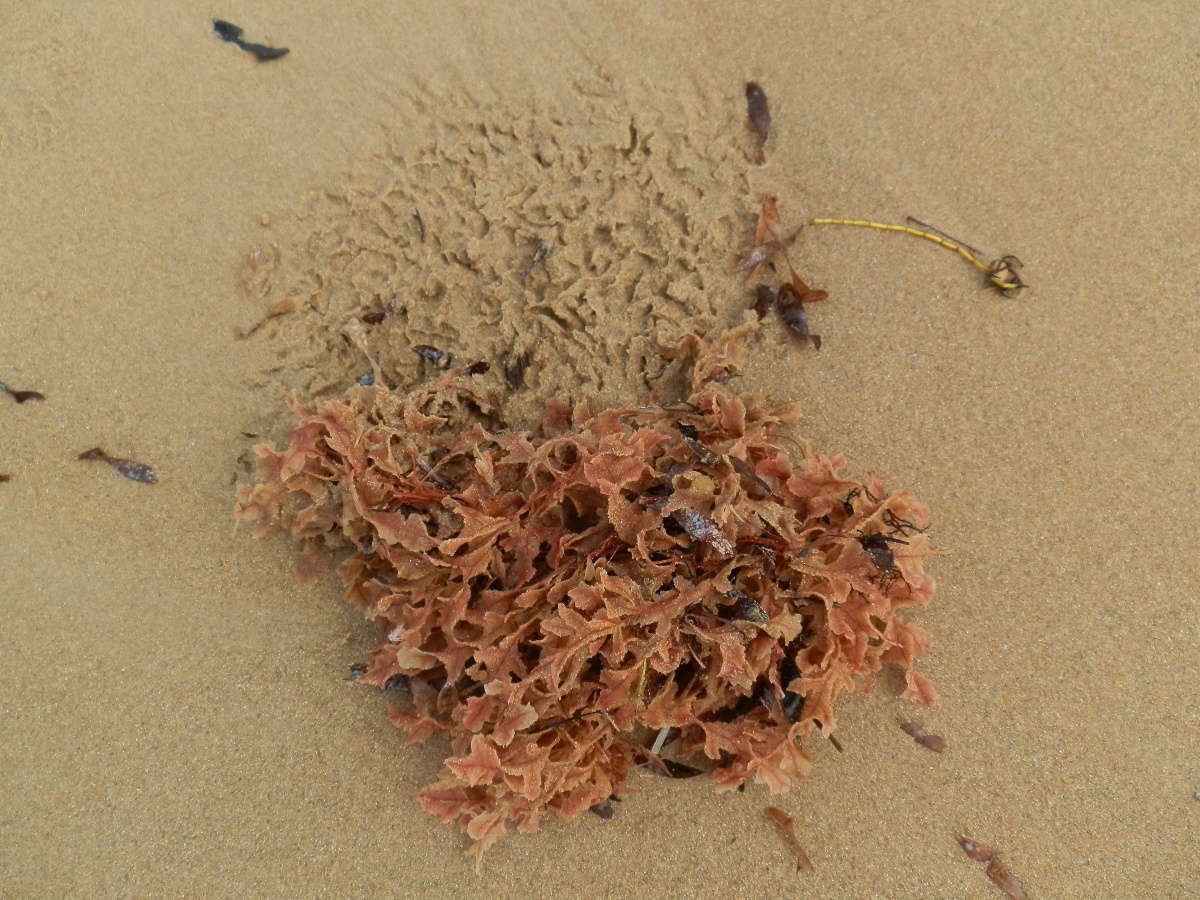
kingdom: Plantae
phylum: Rhodophyta
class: Florideophyceae
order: Ceramiales
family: Dasyaceae
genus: Thuretia
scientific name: Thuretia quercifolia
